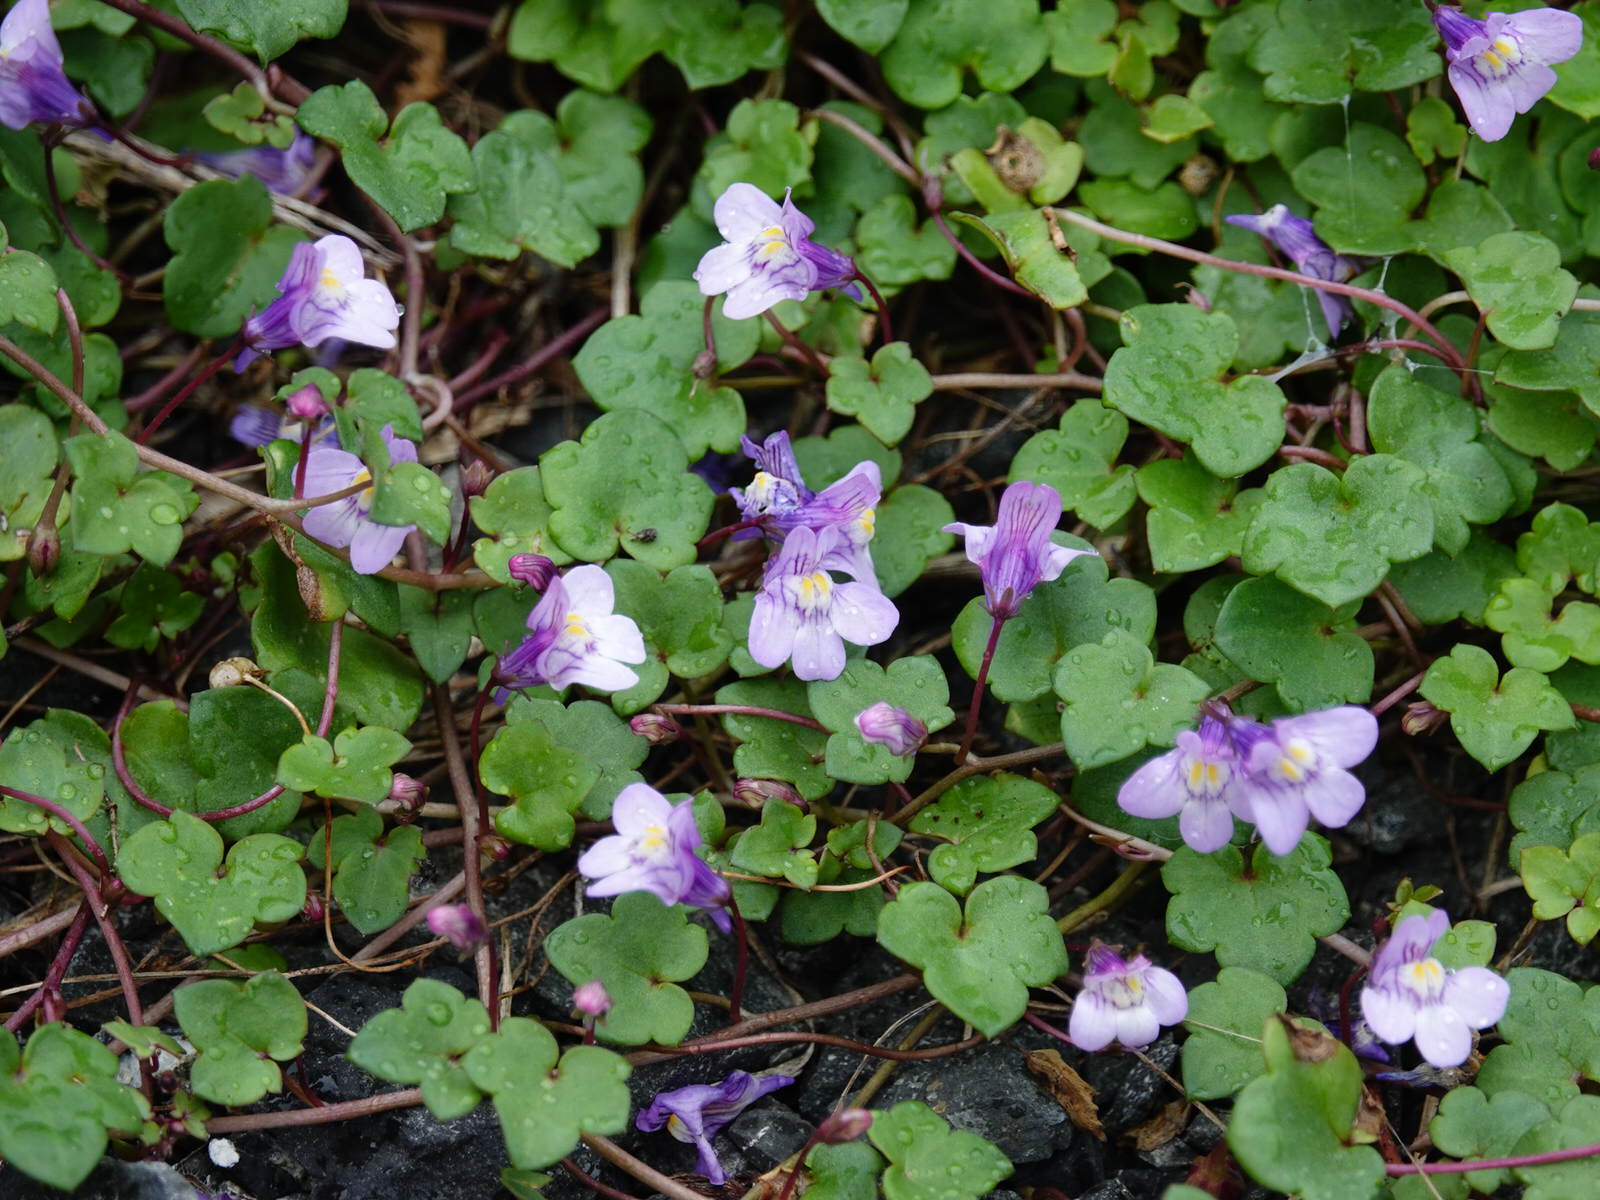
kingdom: Plantae
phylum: Tracheophyta
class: Magnoliopsida
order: Lamiales
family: Plantaginaceae
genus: Cymbalaria
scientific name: Cymbalaria muralis
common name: Ivy-leaved toadflax
